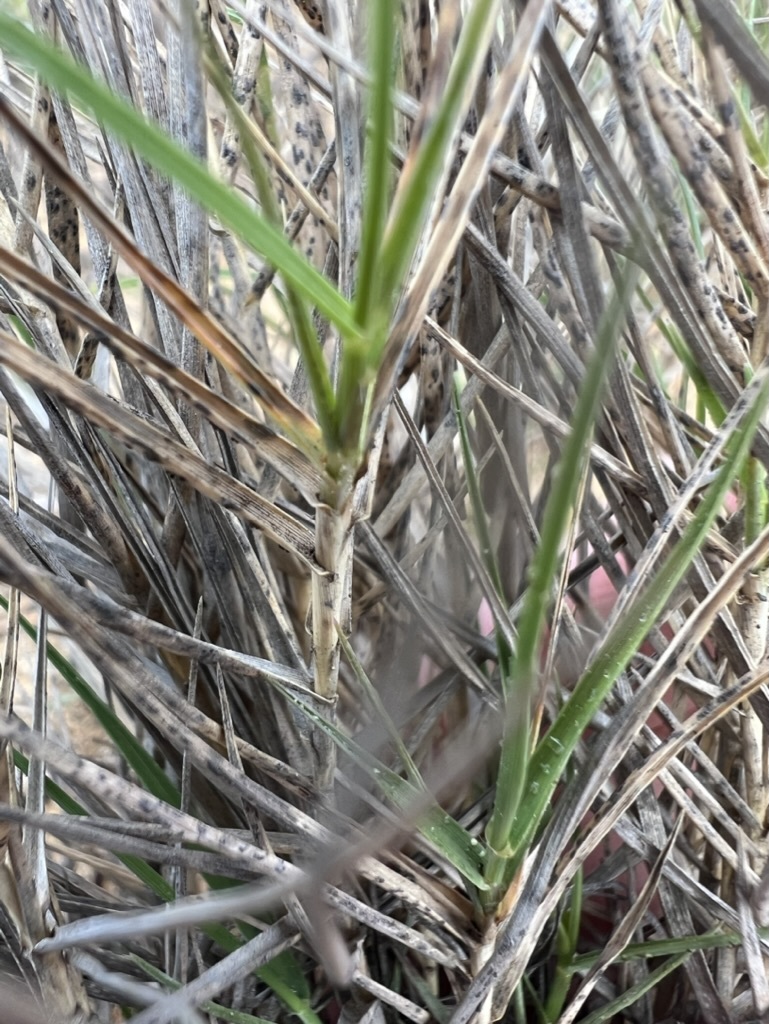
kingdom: Plantae
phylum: Tracheophyta
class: Liliopsida
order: Poales
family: Poaceae
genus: Distichlis
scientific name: Distichlis spicata
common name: Saltgrass
